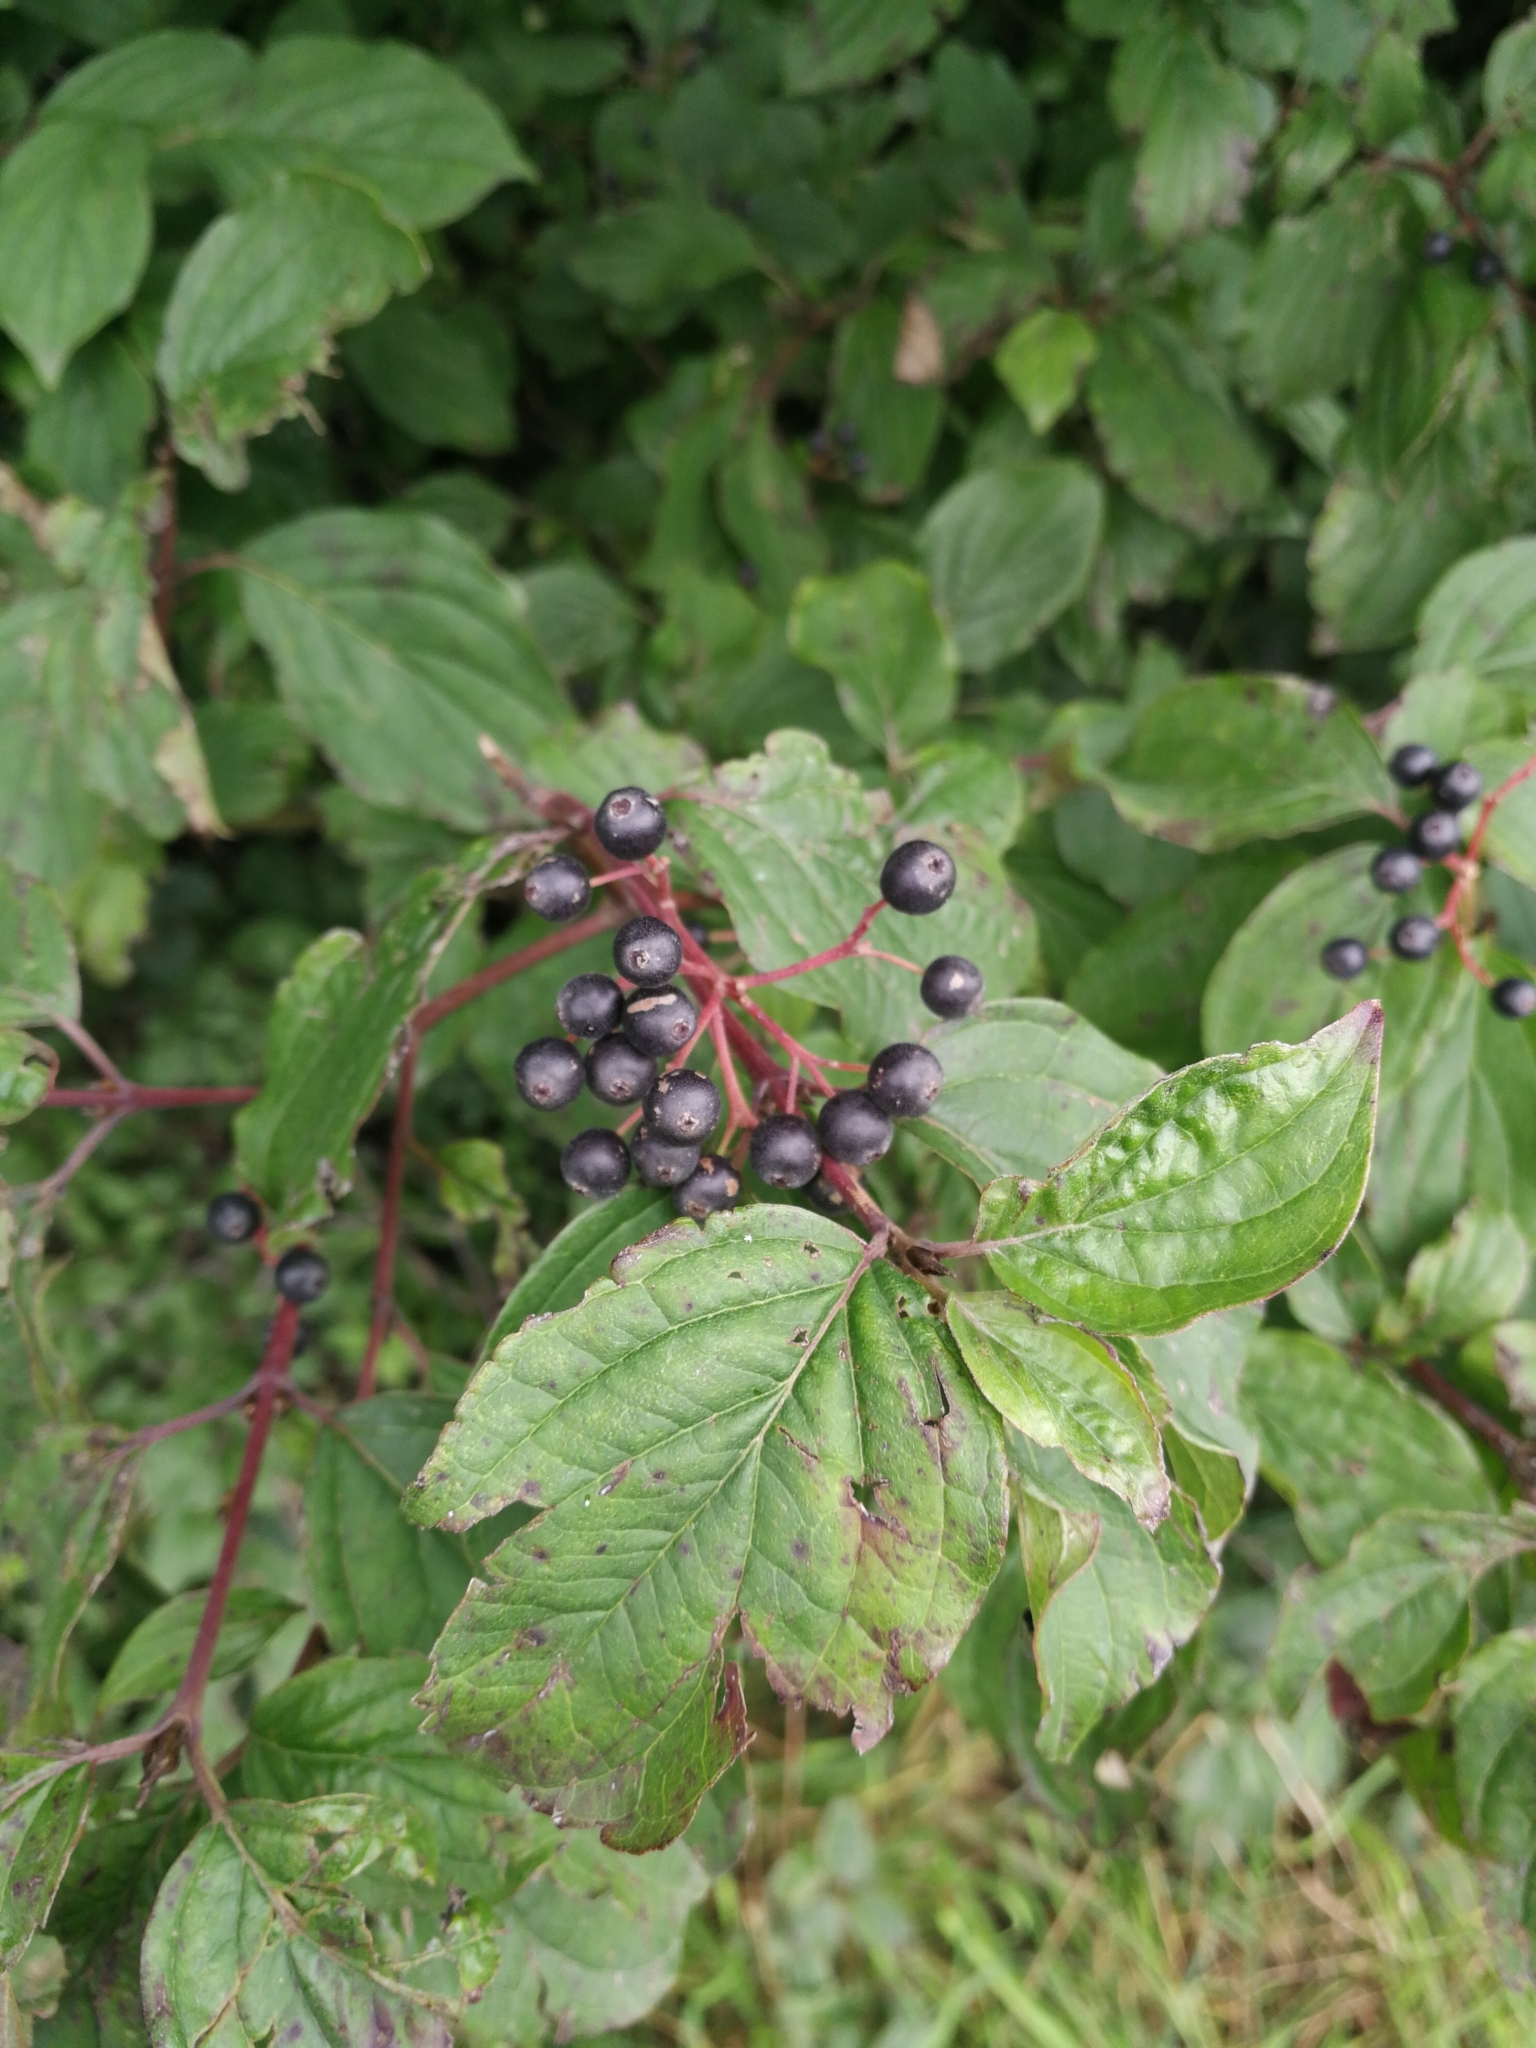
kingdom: Plantae
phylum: Tracheophyta
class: Magnoliopsida
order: Cornales
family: Cornaceae
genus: Cornus
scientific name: Cornus sanguinea
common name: Dogwood
